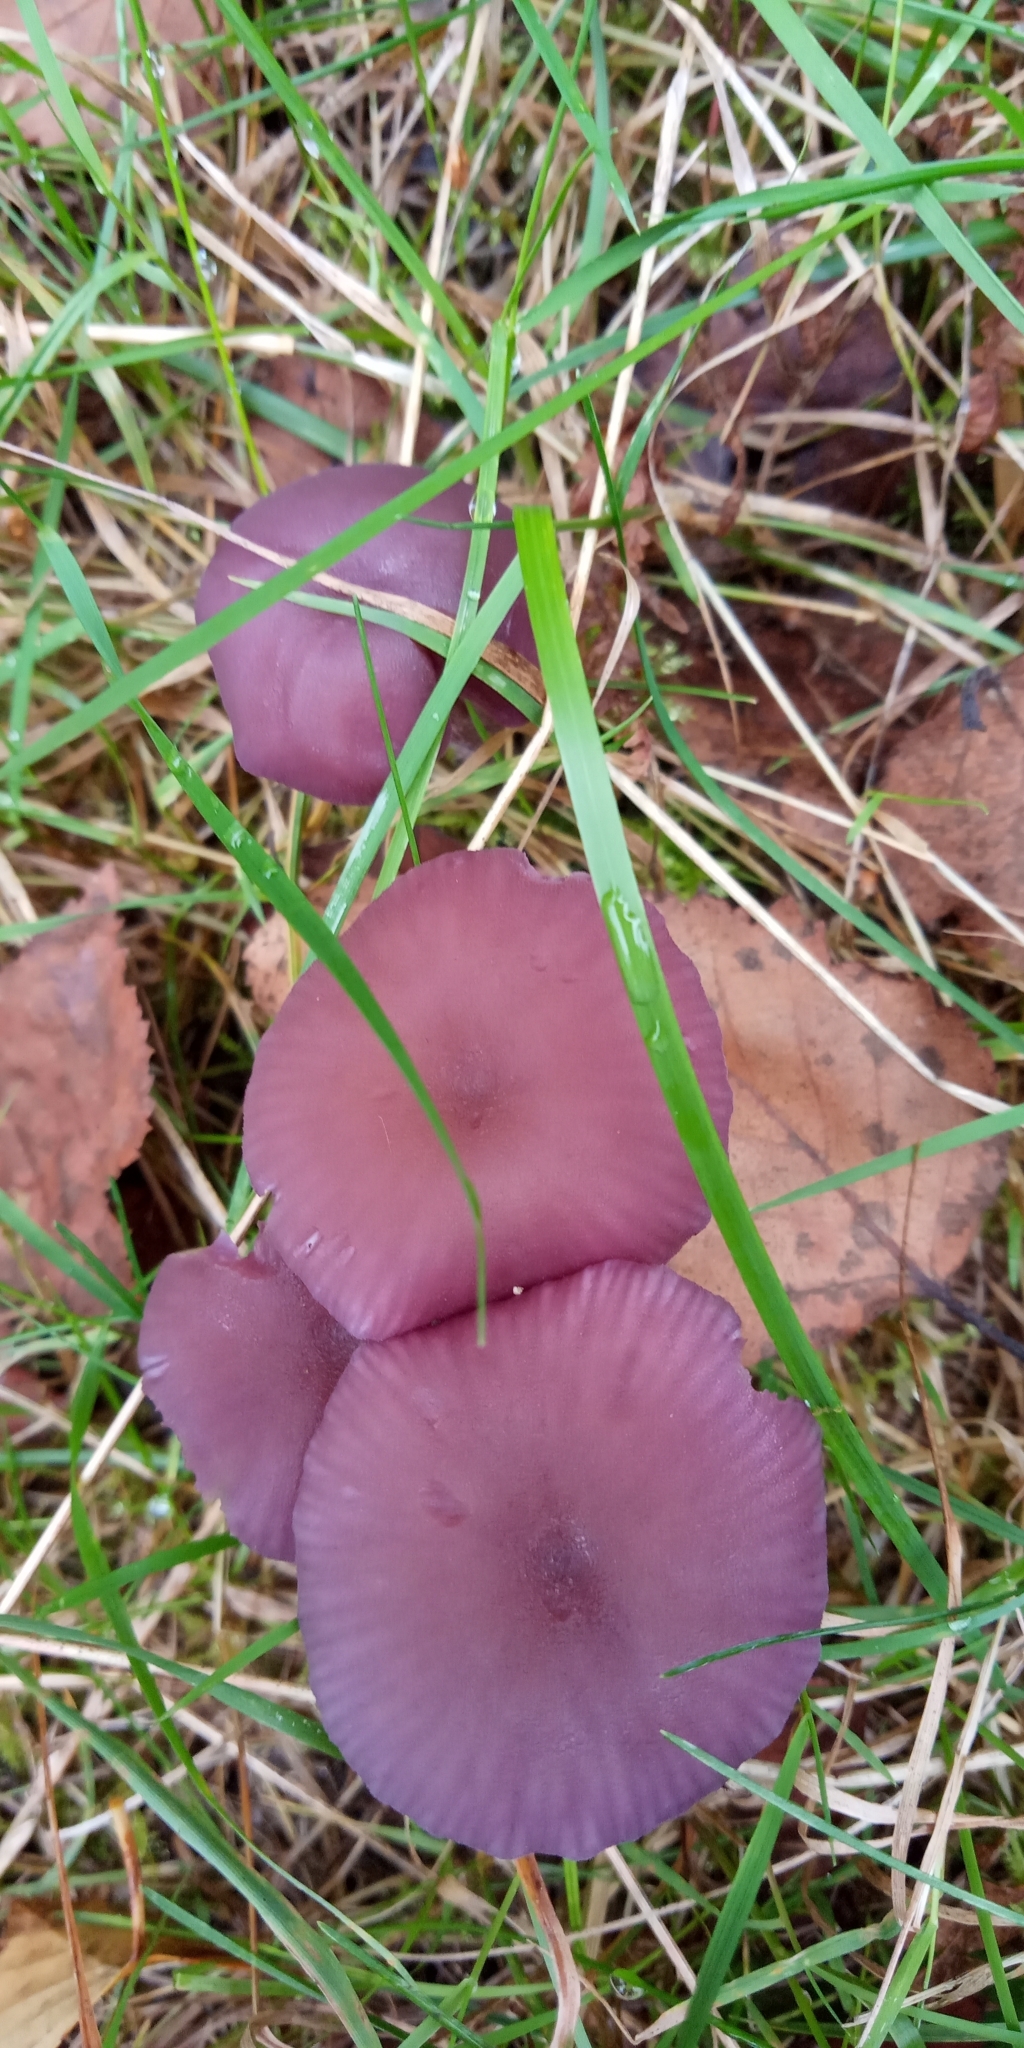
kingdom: Fungi
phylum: Basidiomycota
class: Agaricomycetes
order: Agaricales
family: Hydnangiaceae
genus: Laccaria
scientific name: Laccaria amethystina
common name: Amethyst deceiver
